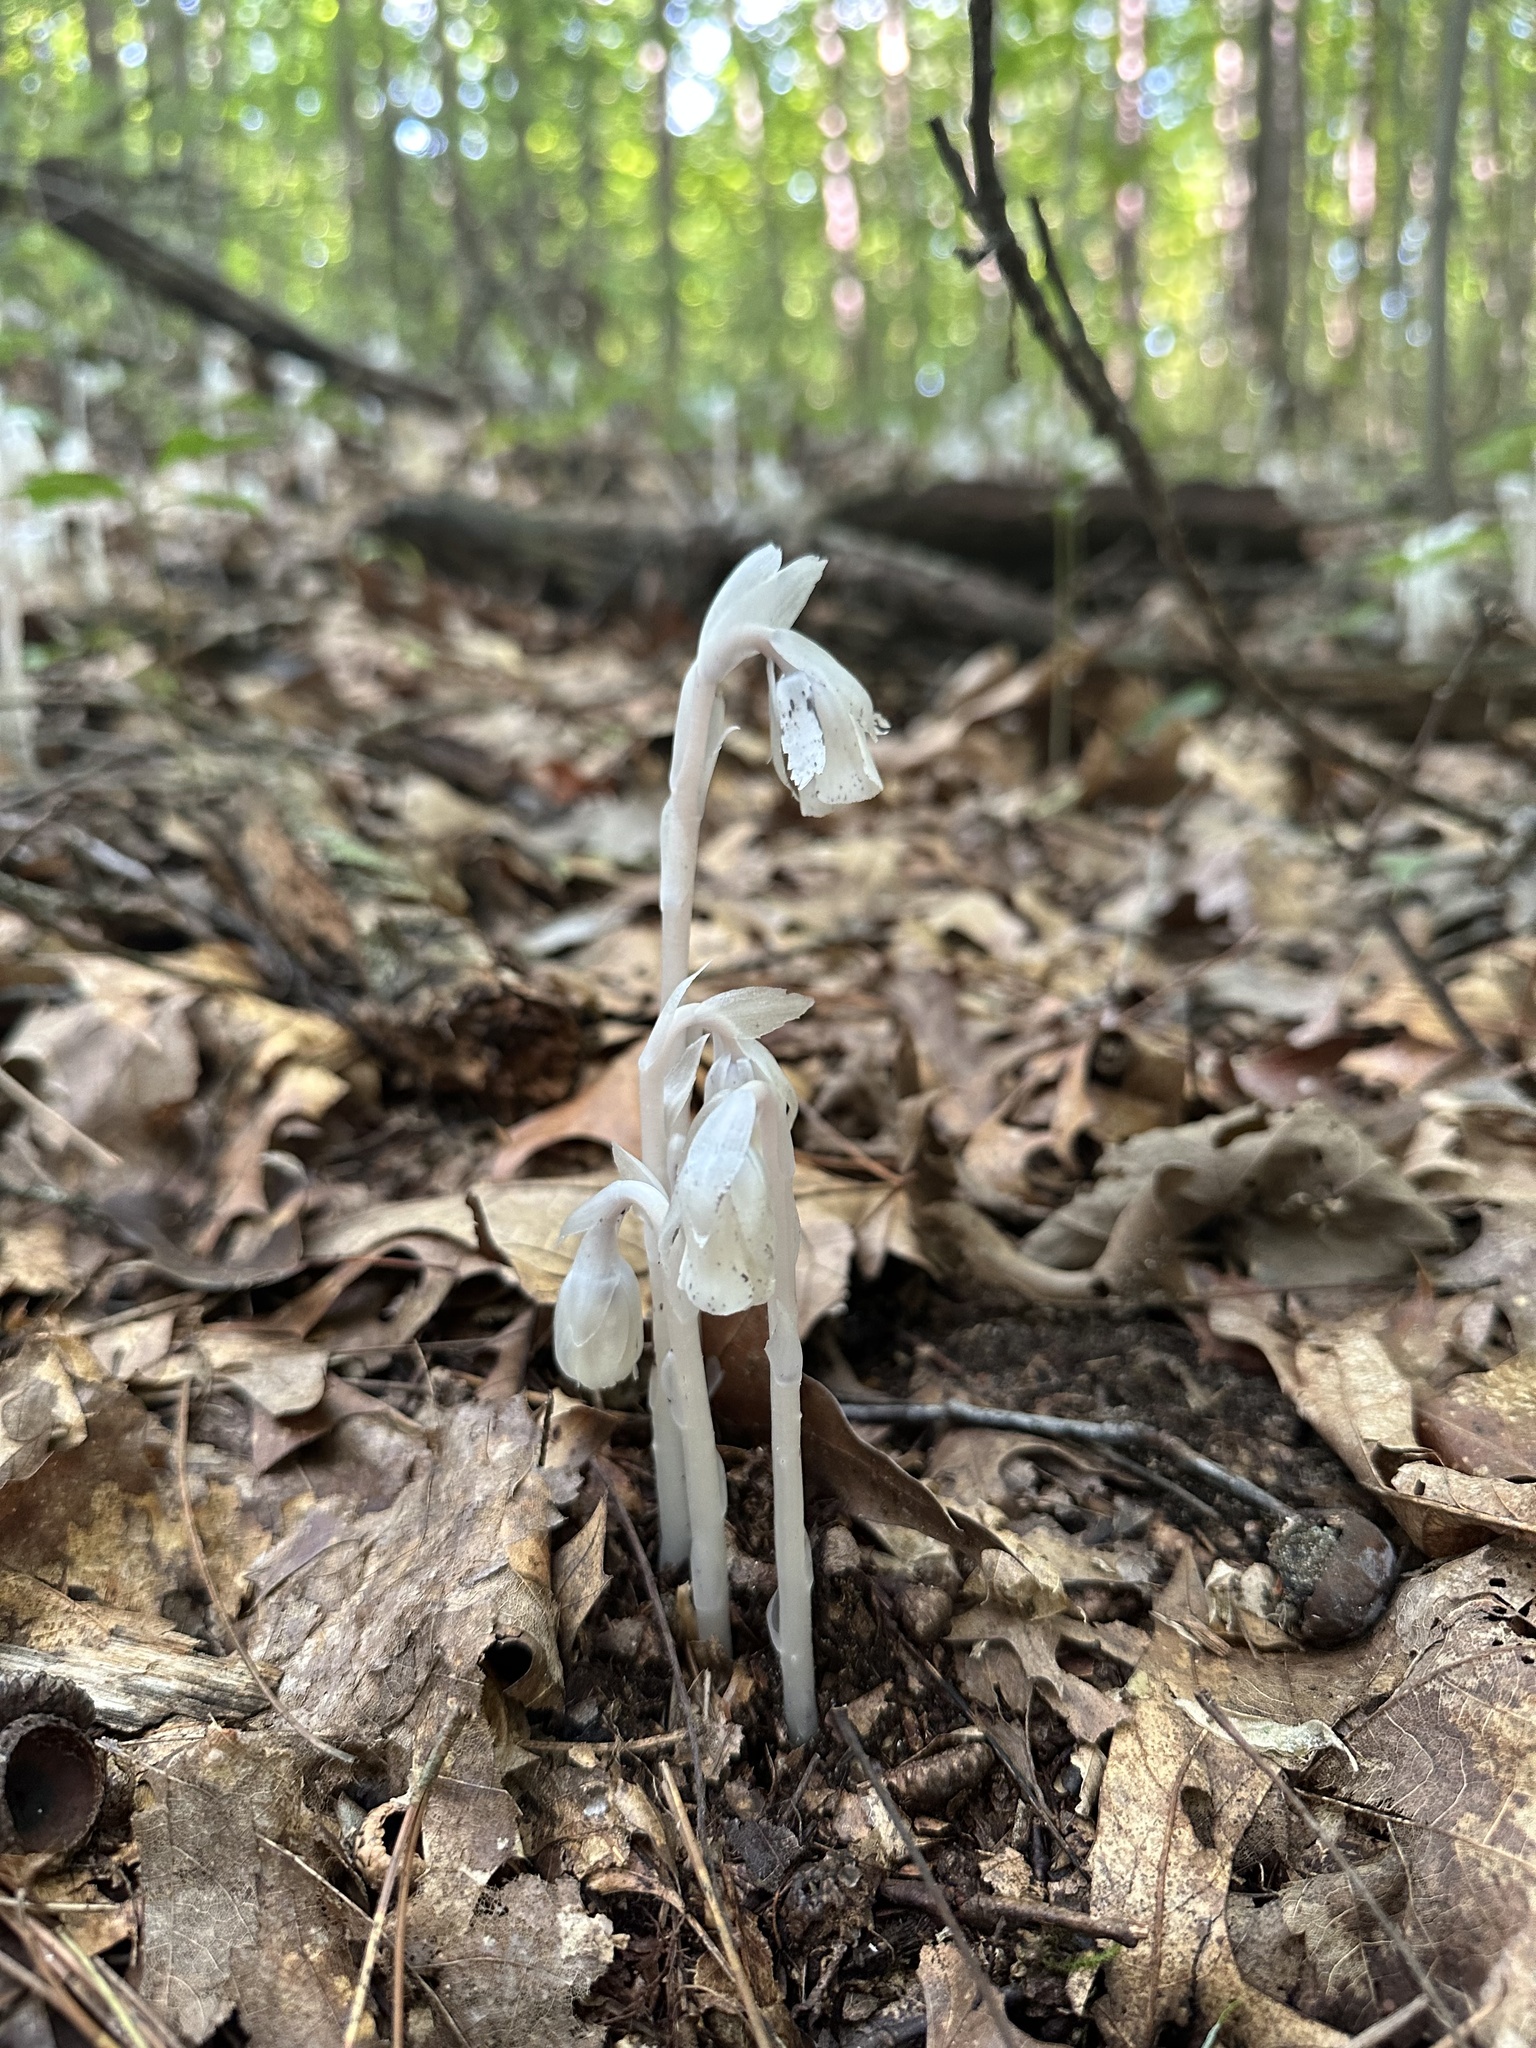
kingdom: Plantae
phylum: Tracheophyta
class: Magnoliopsida
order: Ericales
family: Ericaceae
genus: Monotropa
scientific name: Monotropa uniflora
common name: Convulsion root
